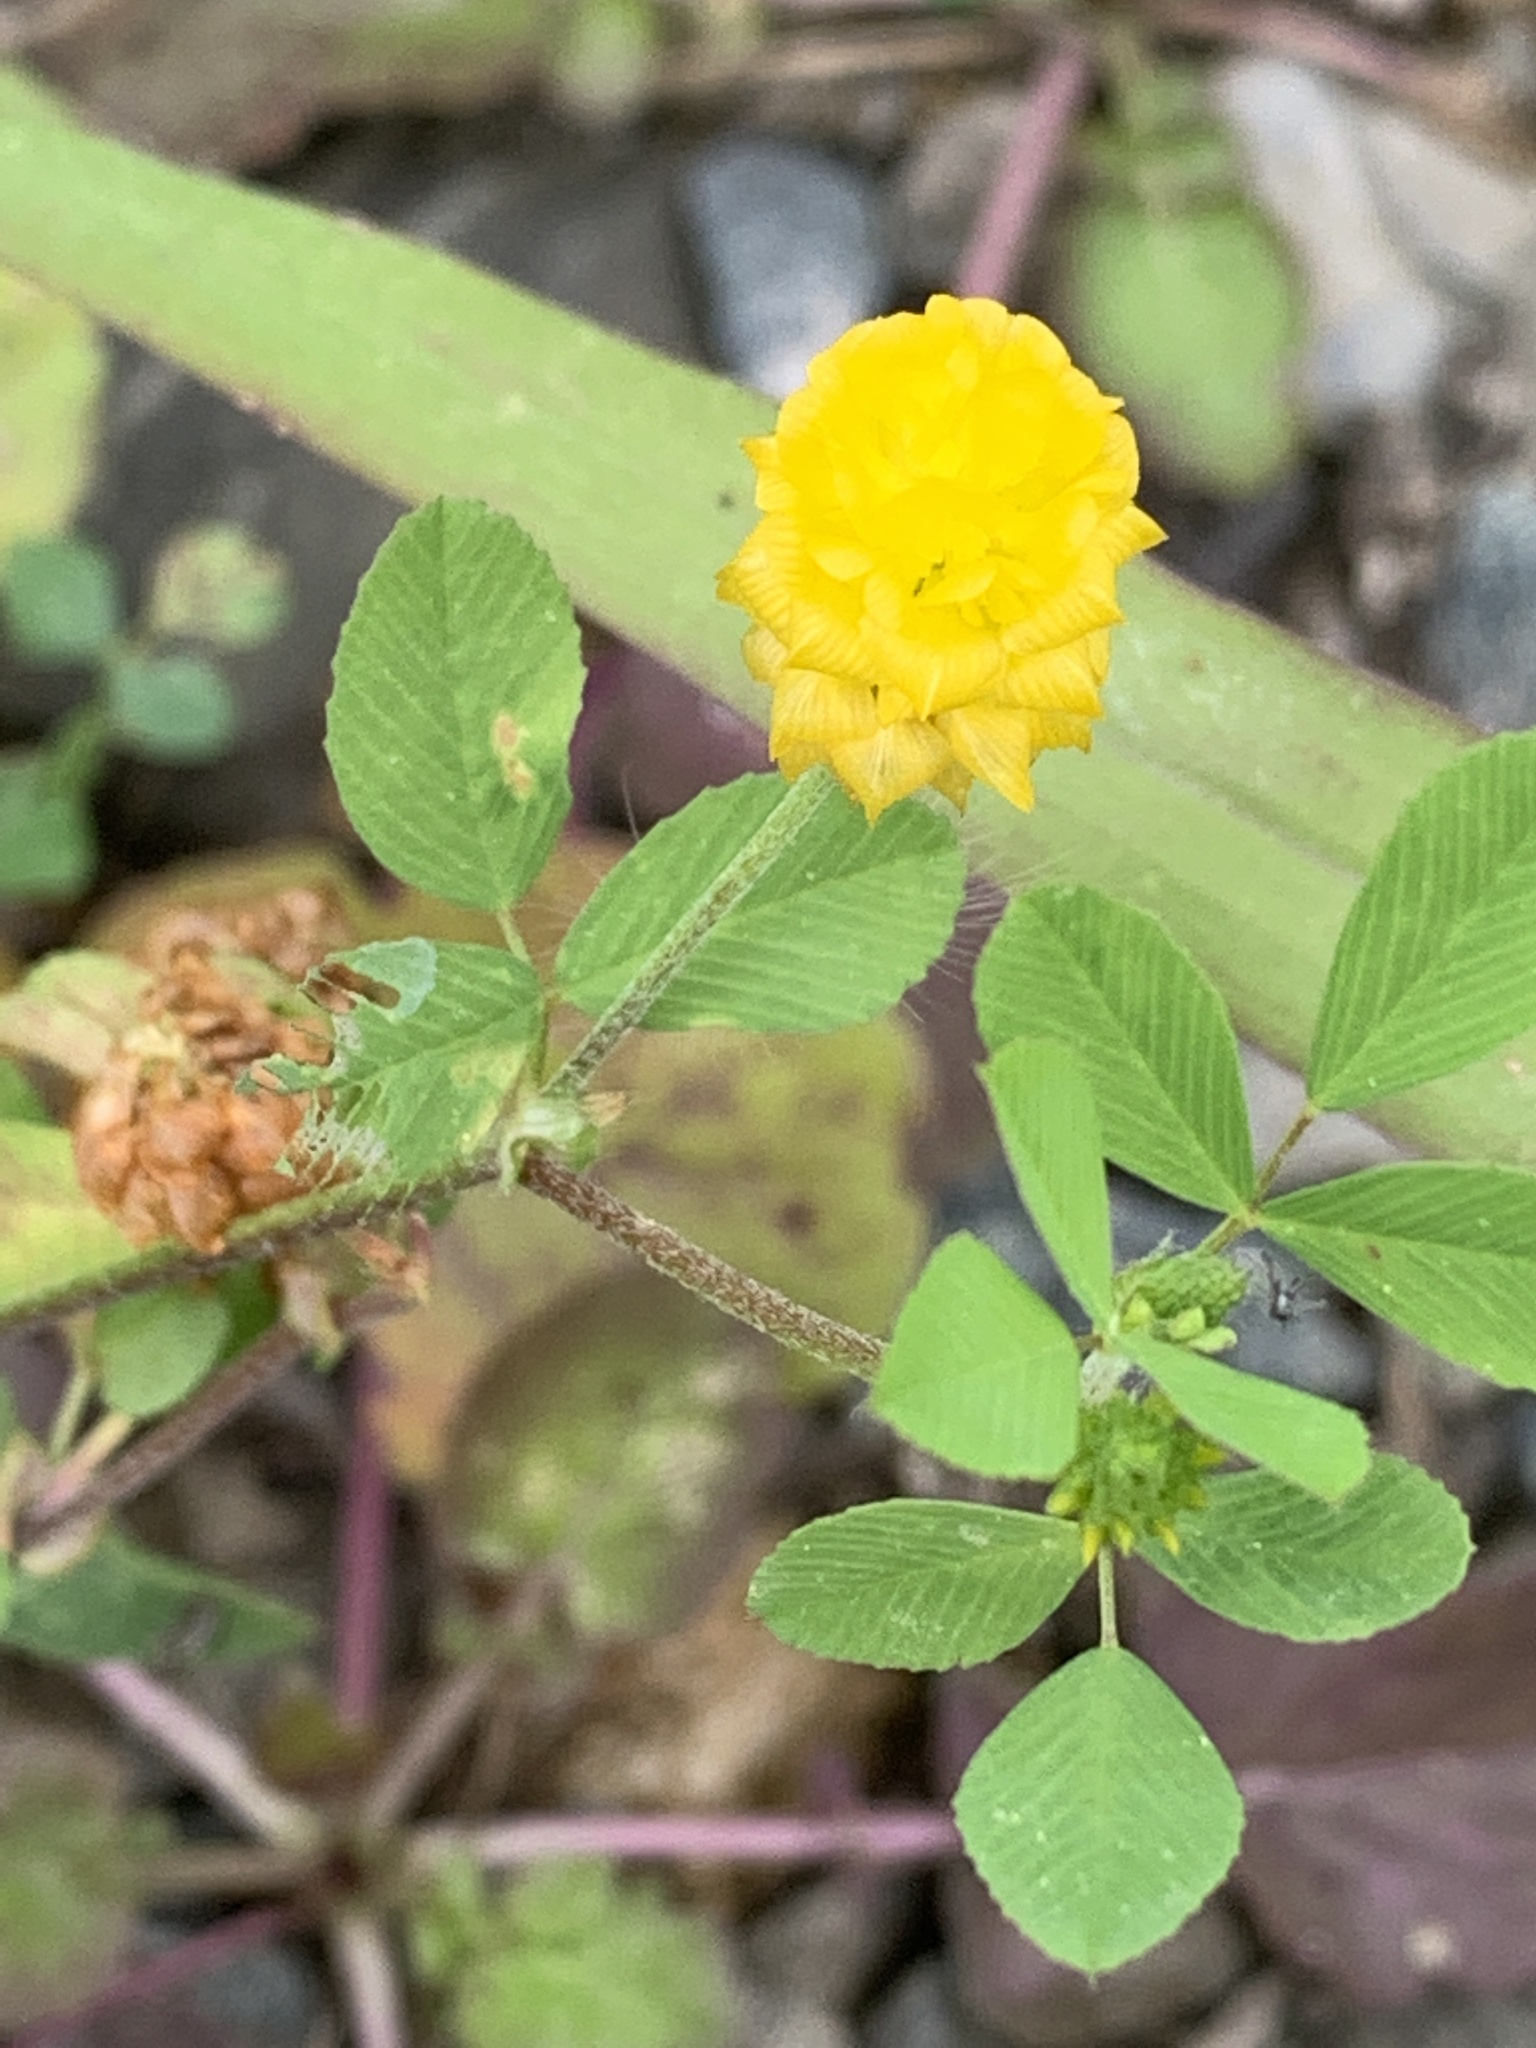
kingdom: Plantae
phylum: Tracheophyta
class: Magnoliopsida
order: Fabales
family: Fabaceae
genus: Trifolium
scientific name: Trifolium campestre
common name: Field clover
